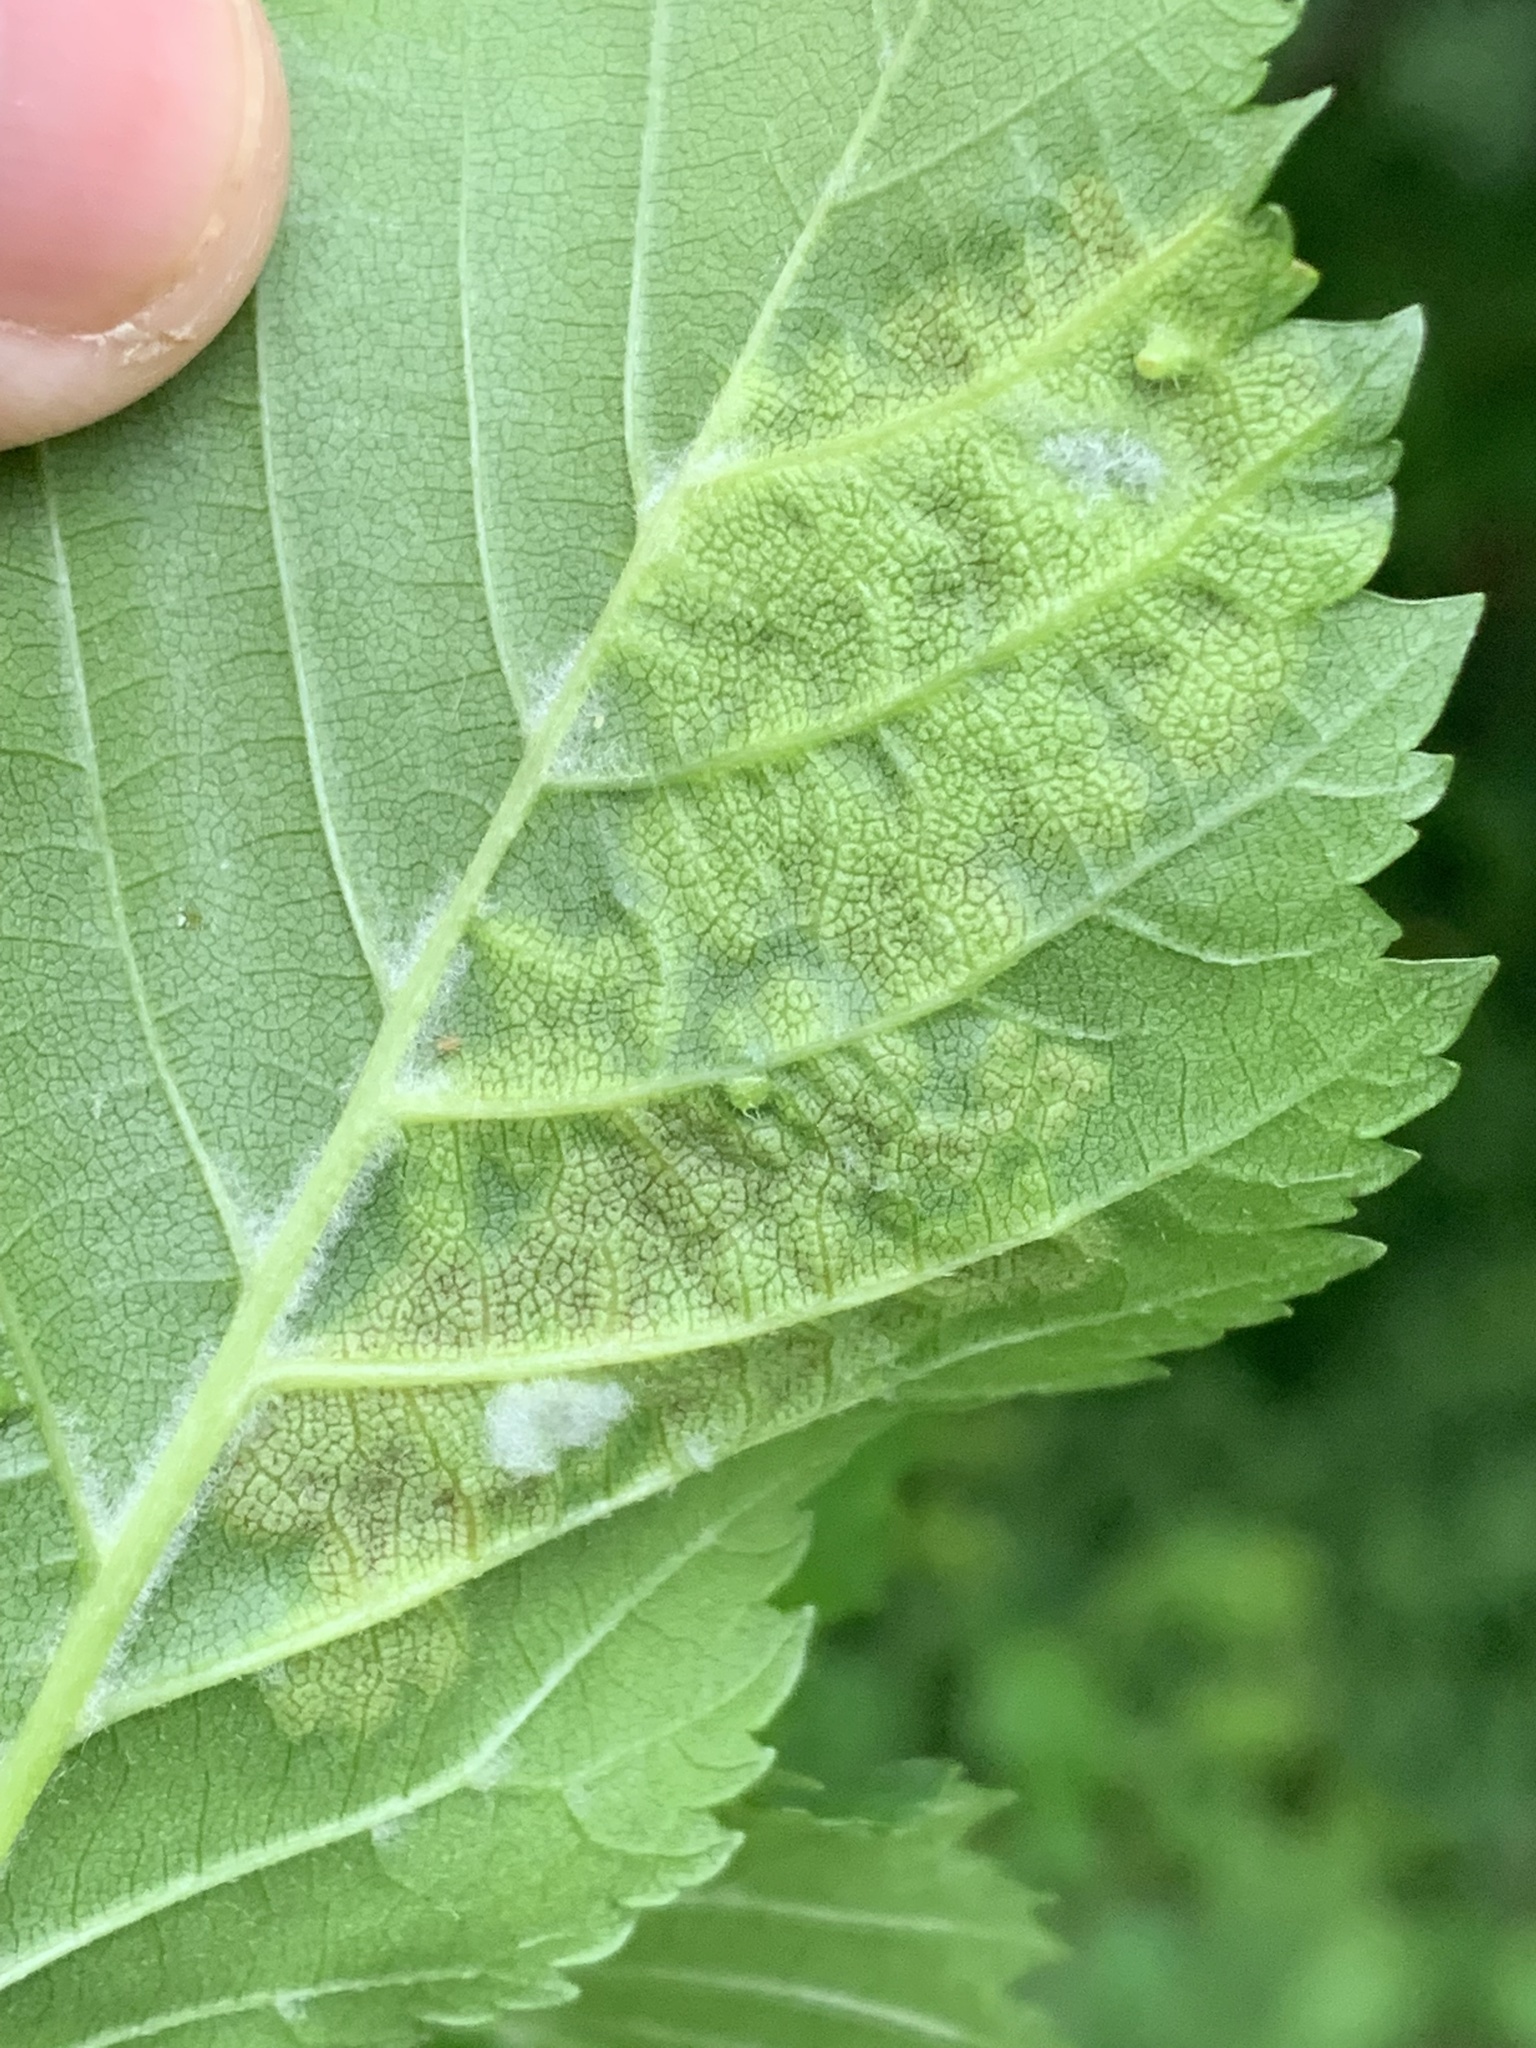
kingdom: Animalia
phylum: Arthropoda
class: Insecta
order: Hemiptera
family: Aphididae
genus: Tetraneura
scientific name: Tetraneura ulmi
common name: Aphid
